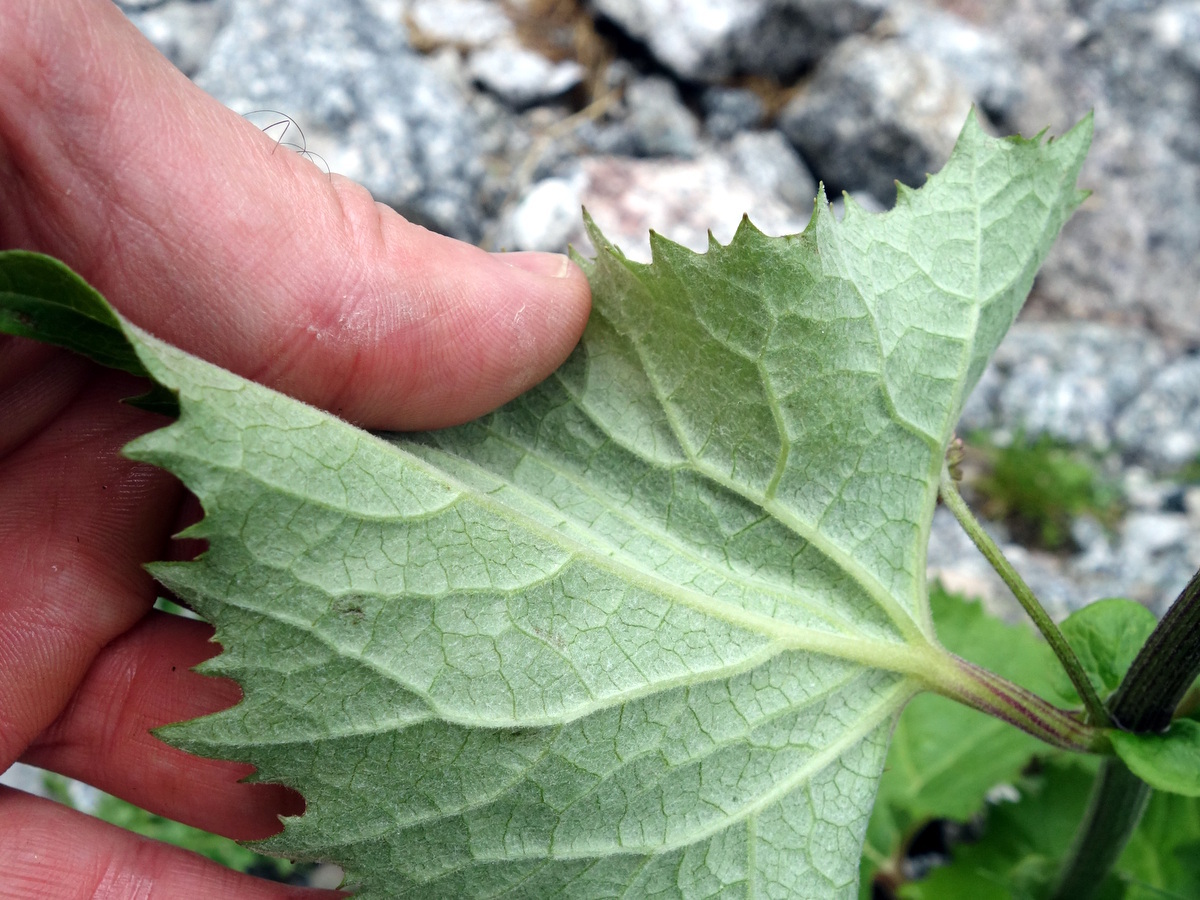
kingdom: Plantae
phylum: Tracheophyta
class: Magnoliopsida
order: Asterales
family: Asteraceae
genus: Adenostyles
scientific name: Adenostyles alliariae
